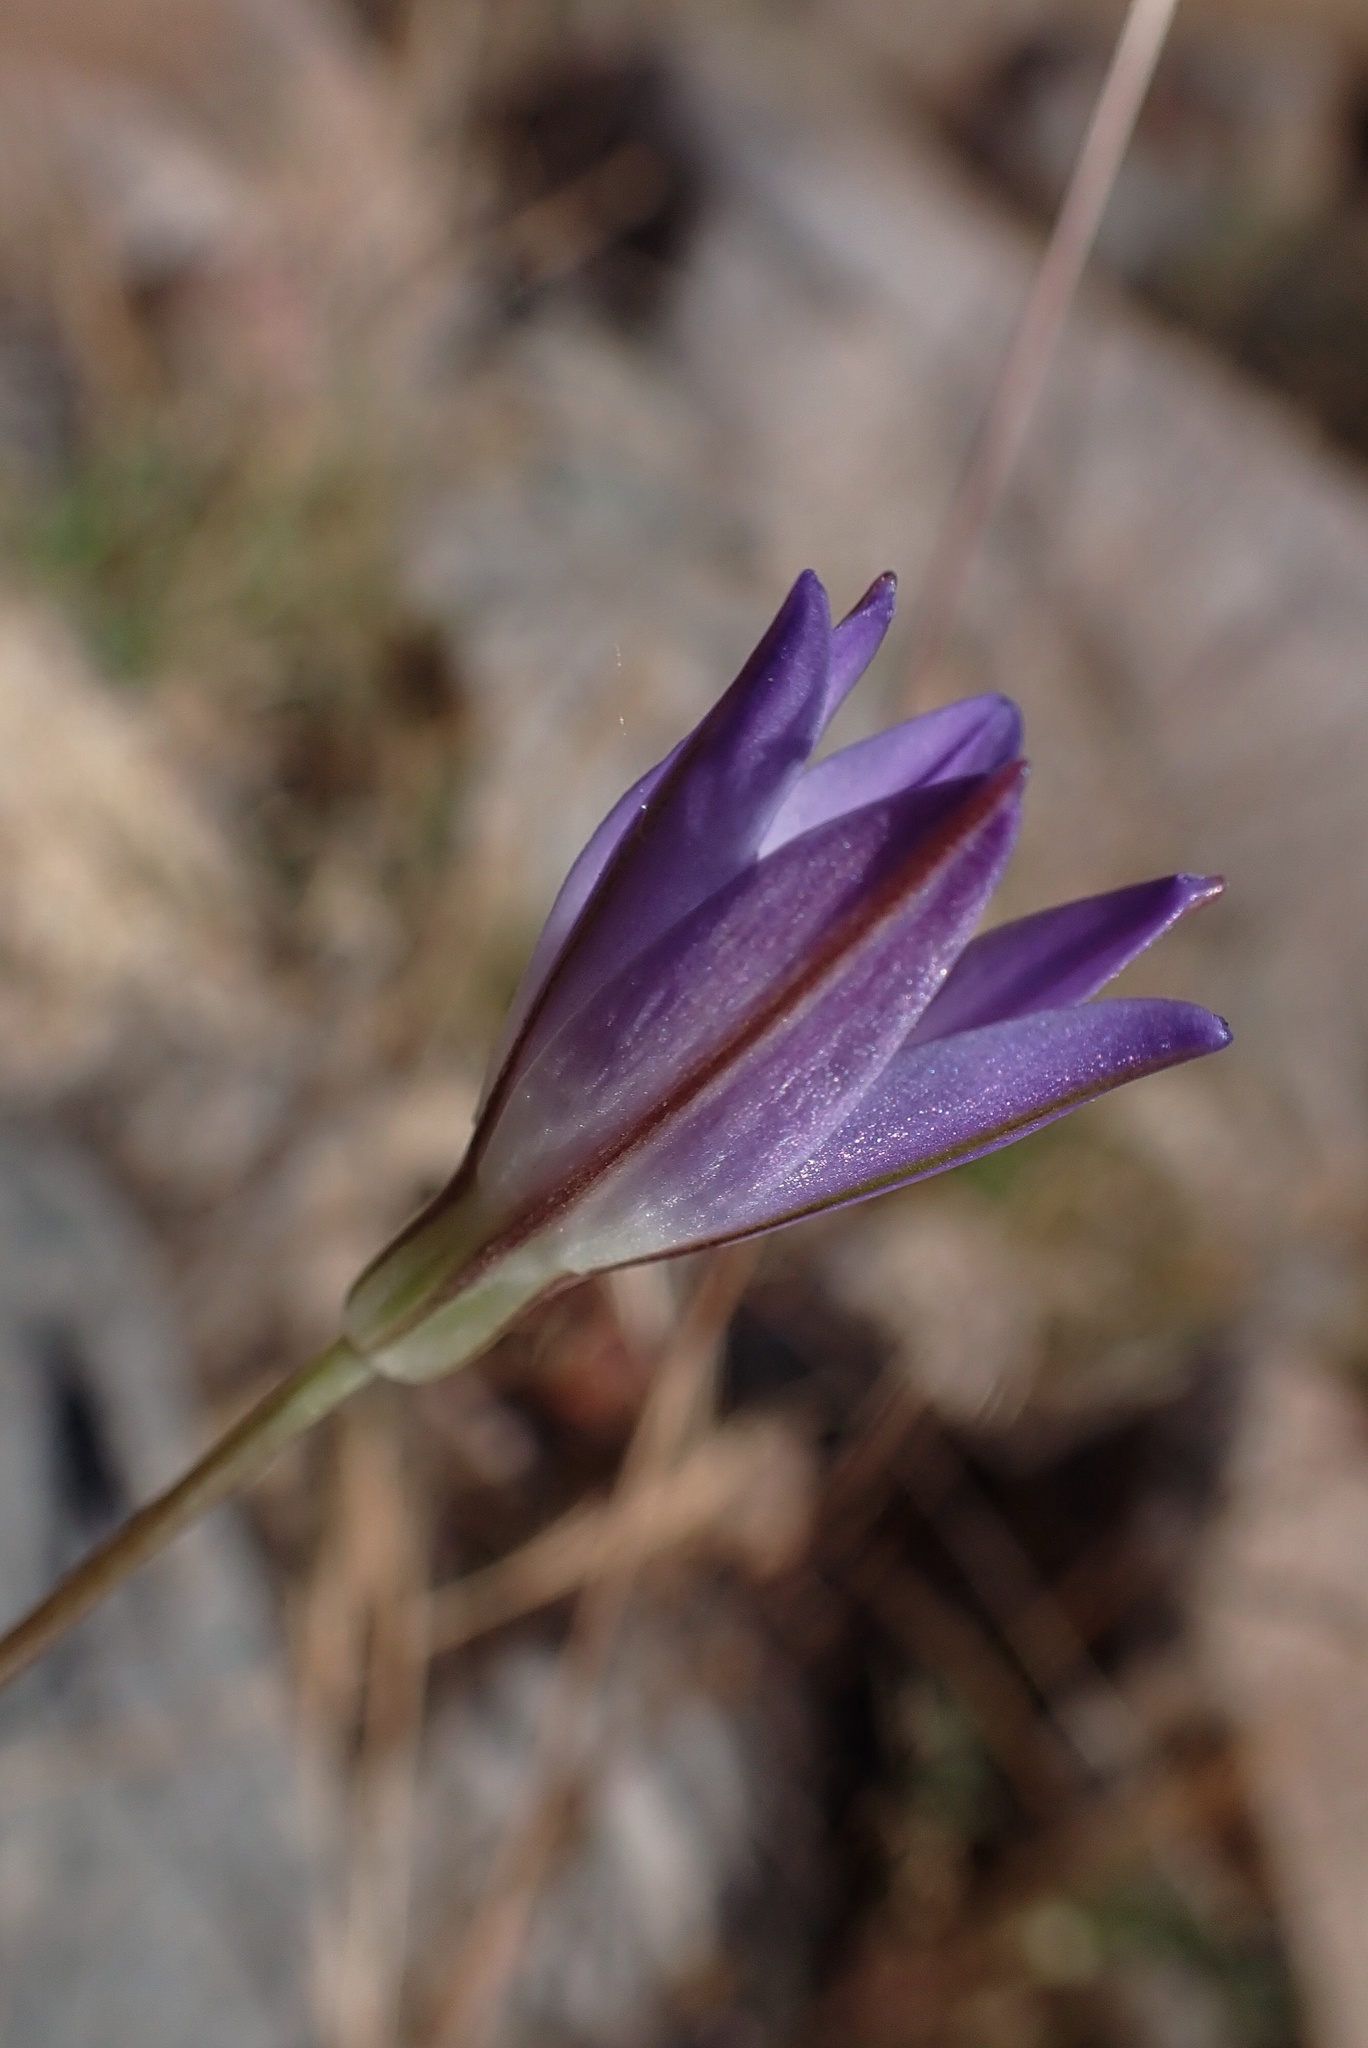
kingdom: Plantae
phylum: Tracheophyta
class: Liliopsida
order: Asparagales
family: Asparagaceae
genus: Brodiaea
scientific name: Brodiaea orcuttii
